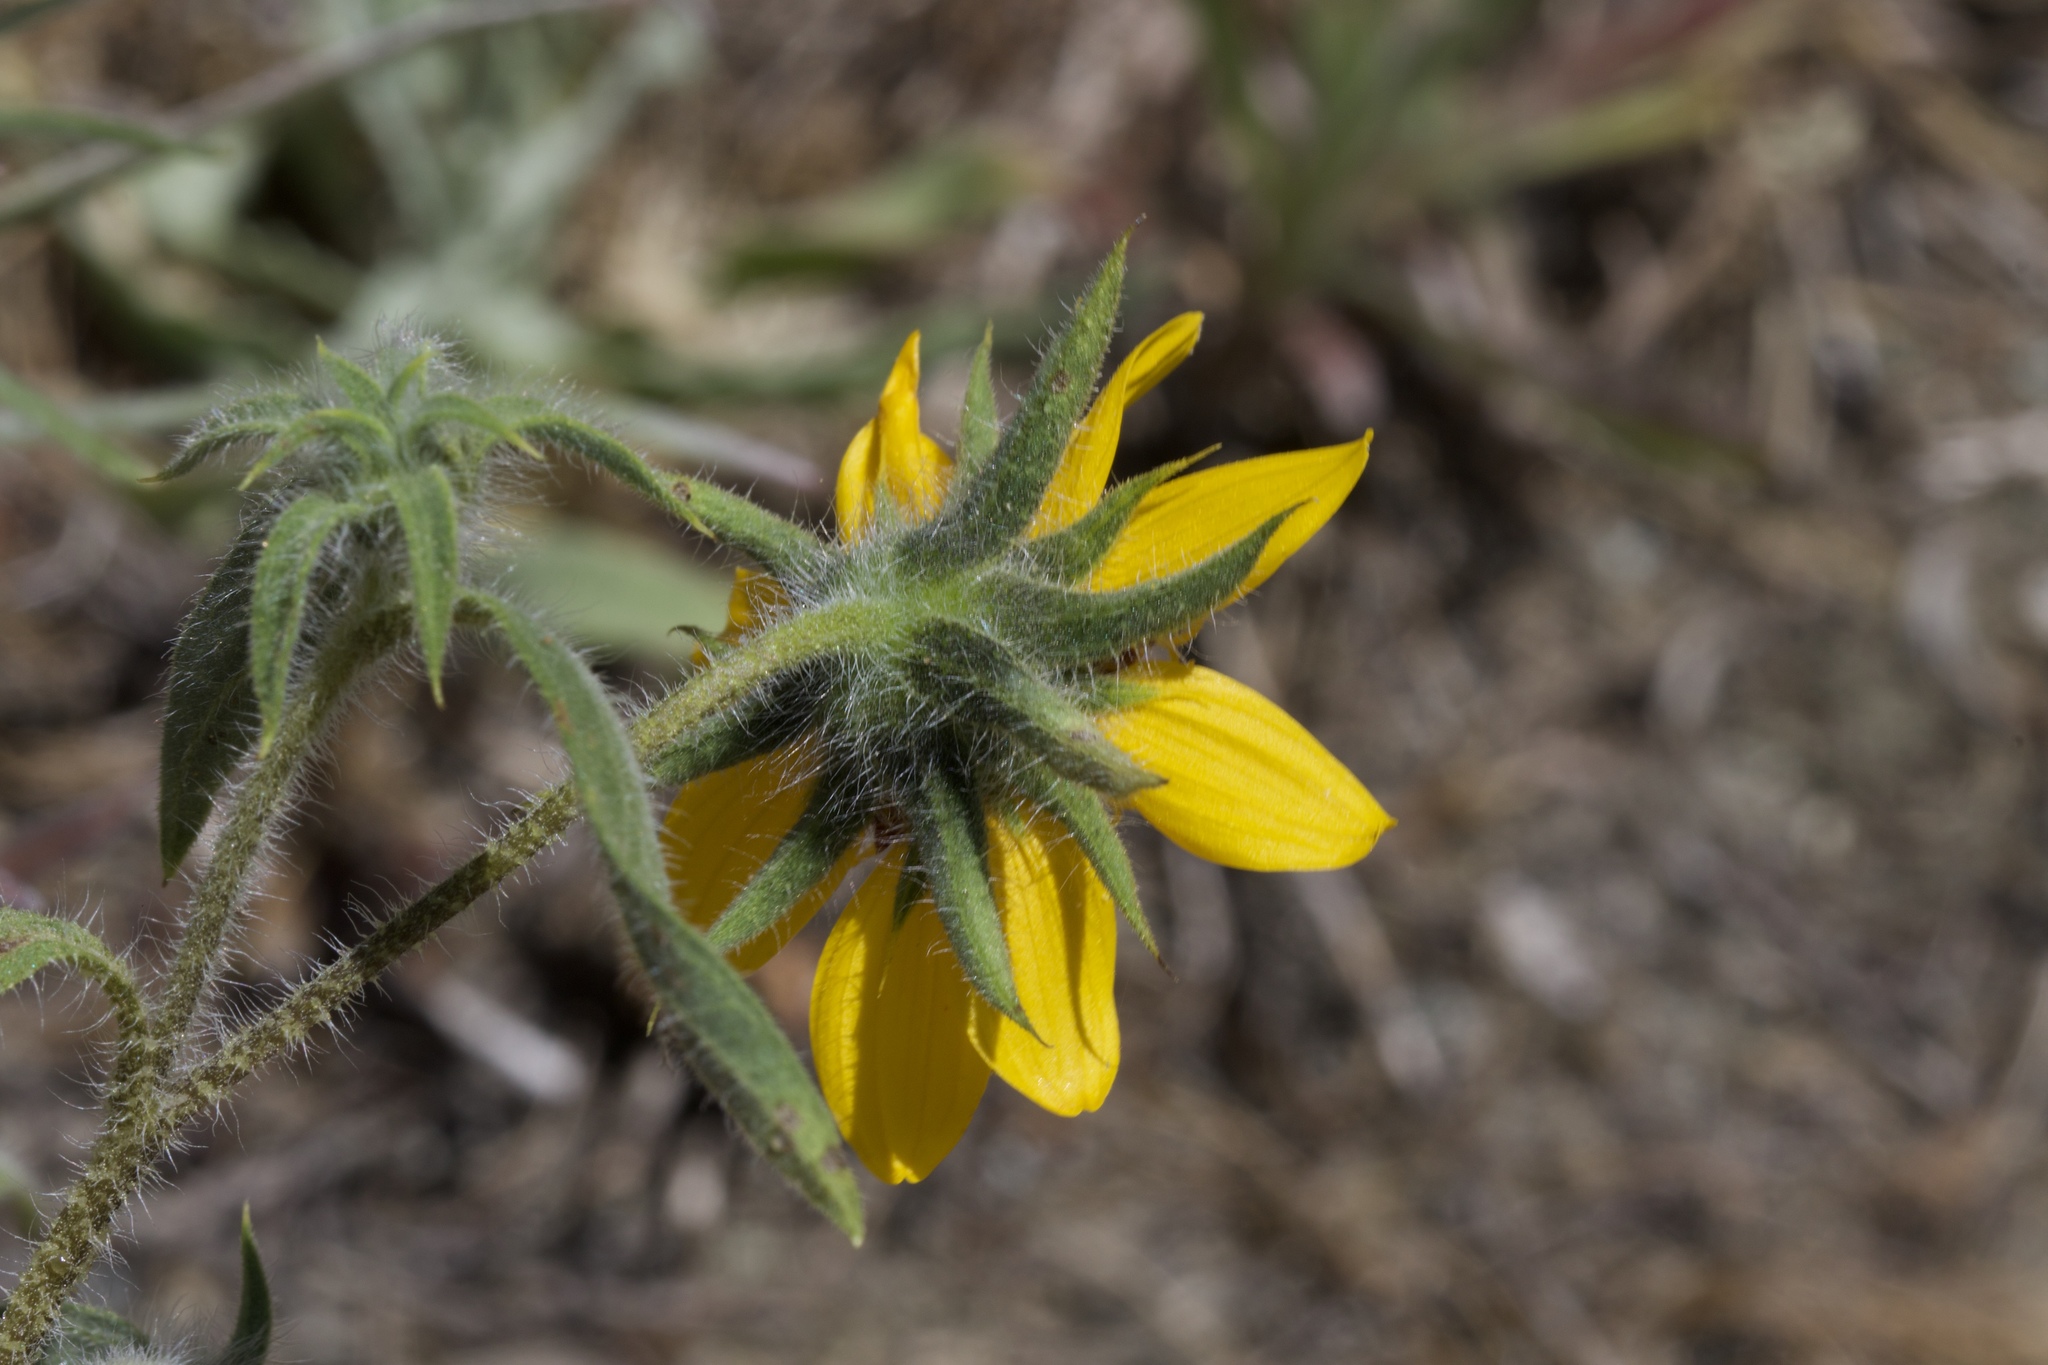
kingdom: Plantae
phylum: Tracheophyta
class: Magnoliopsida
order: Asterales
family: Asteraceae
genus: Helianthus
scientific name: Helianthus exilis
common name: Serpentine sunflower
